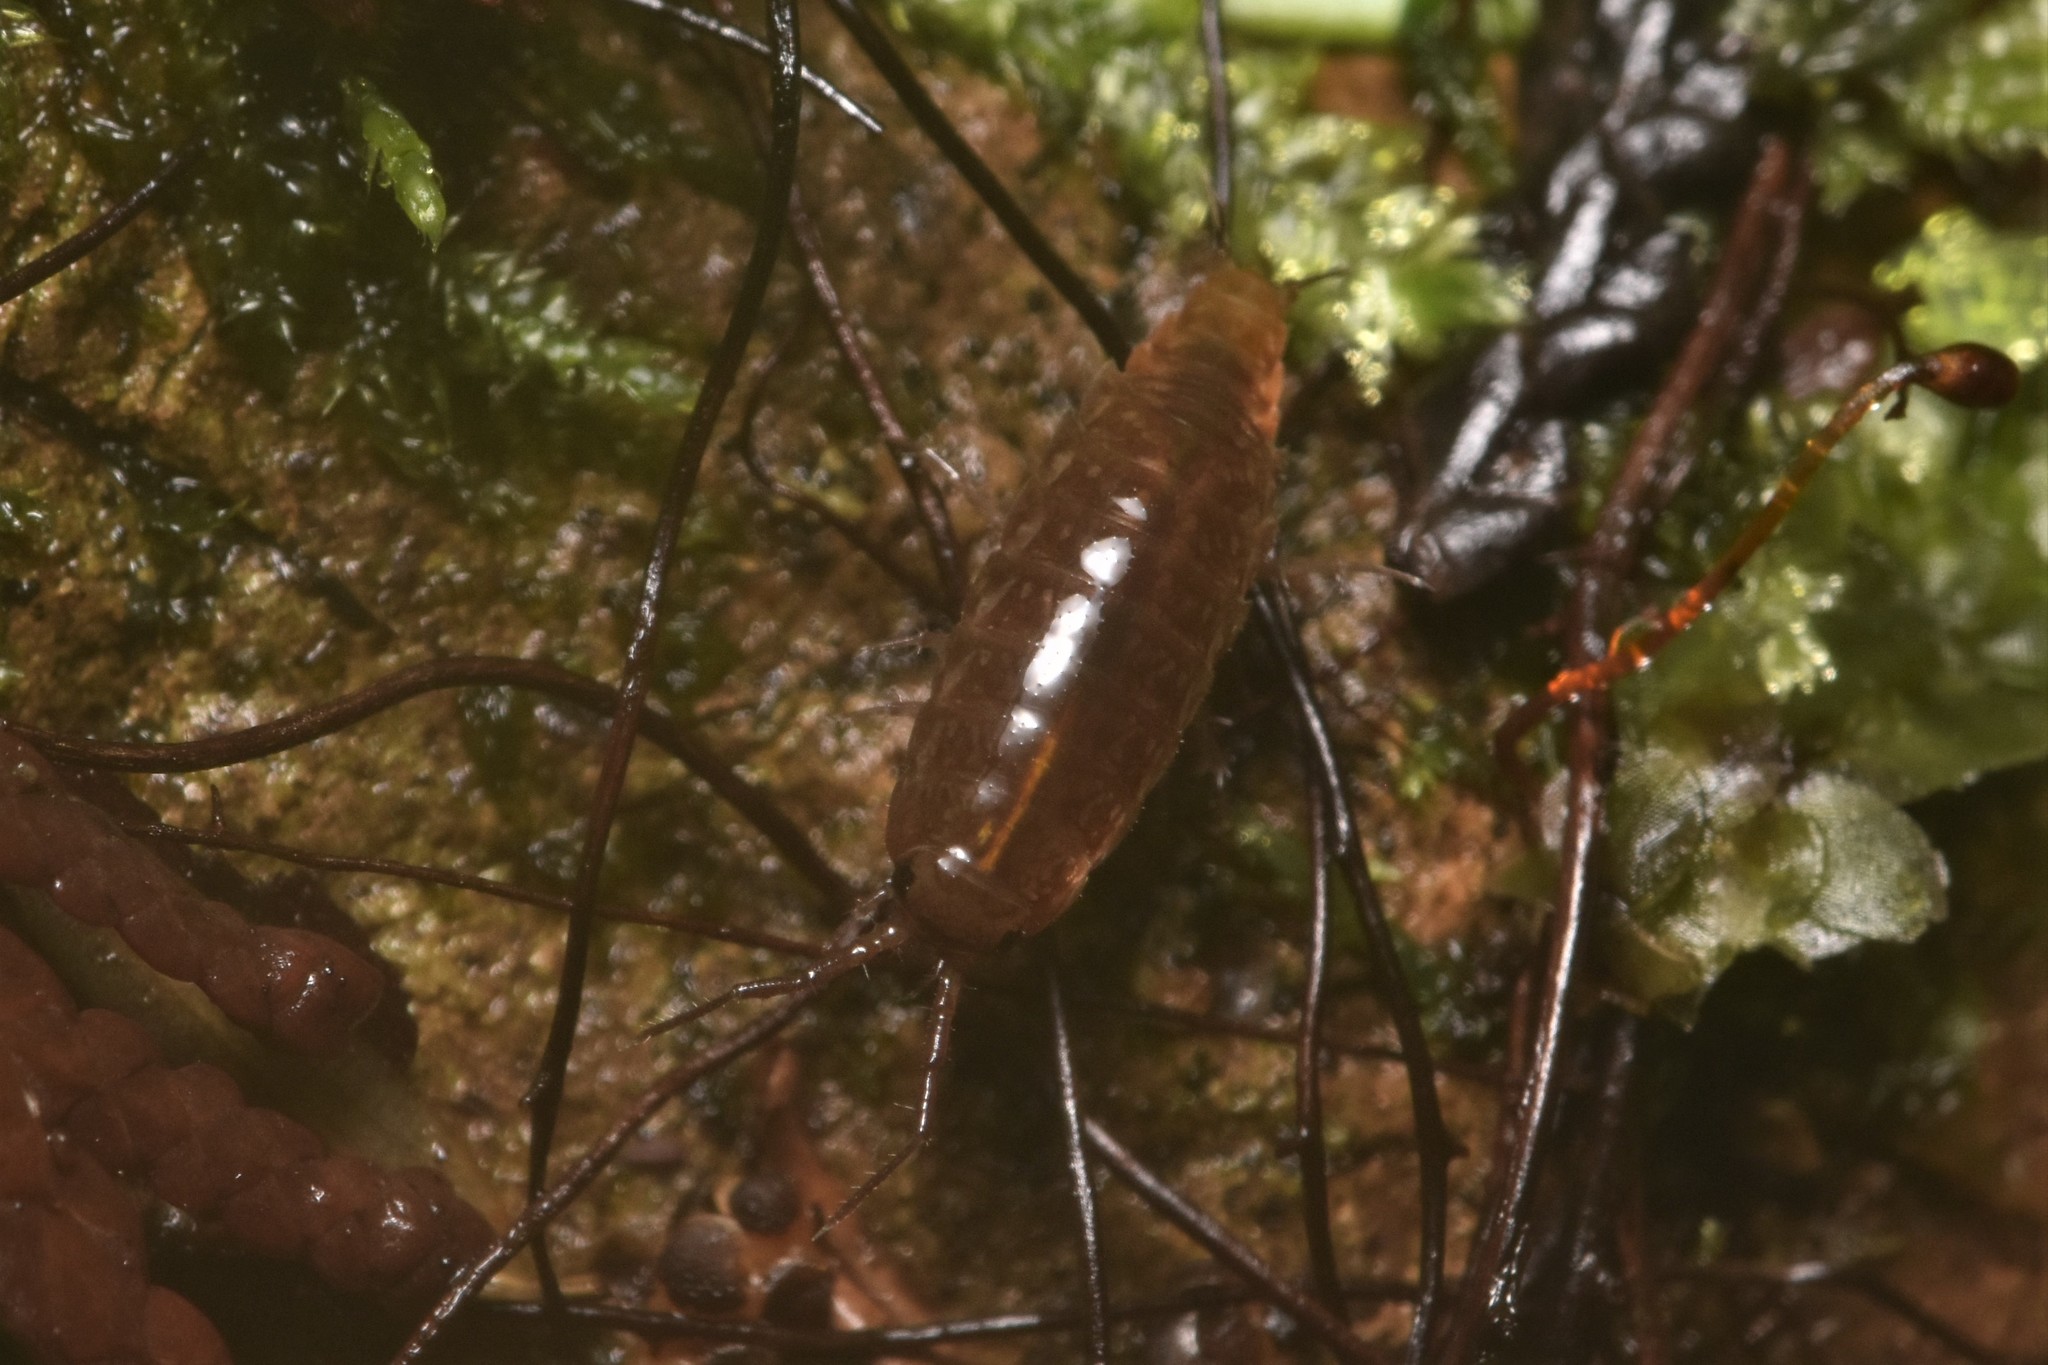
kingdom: Animalia
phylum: Arthropoda
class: Malacostraca
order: Isopoda
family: Ligiidae
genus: Ligidium
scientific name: Ligidium gracile
